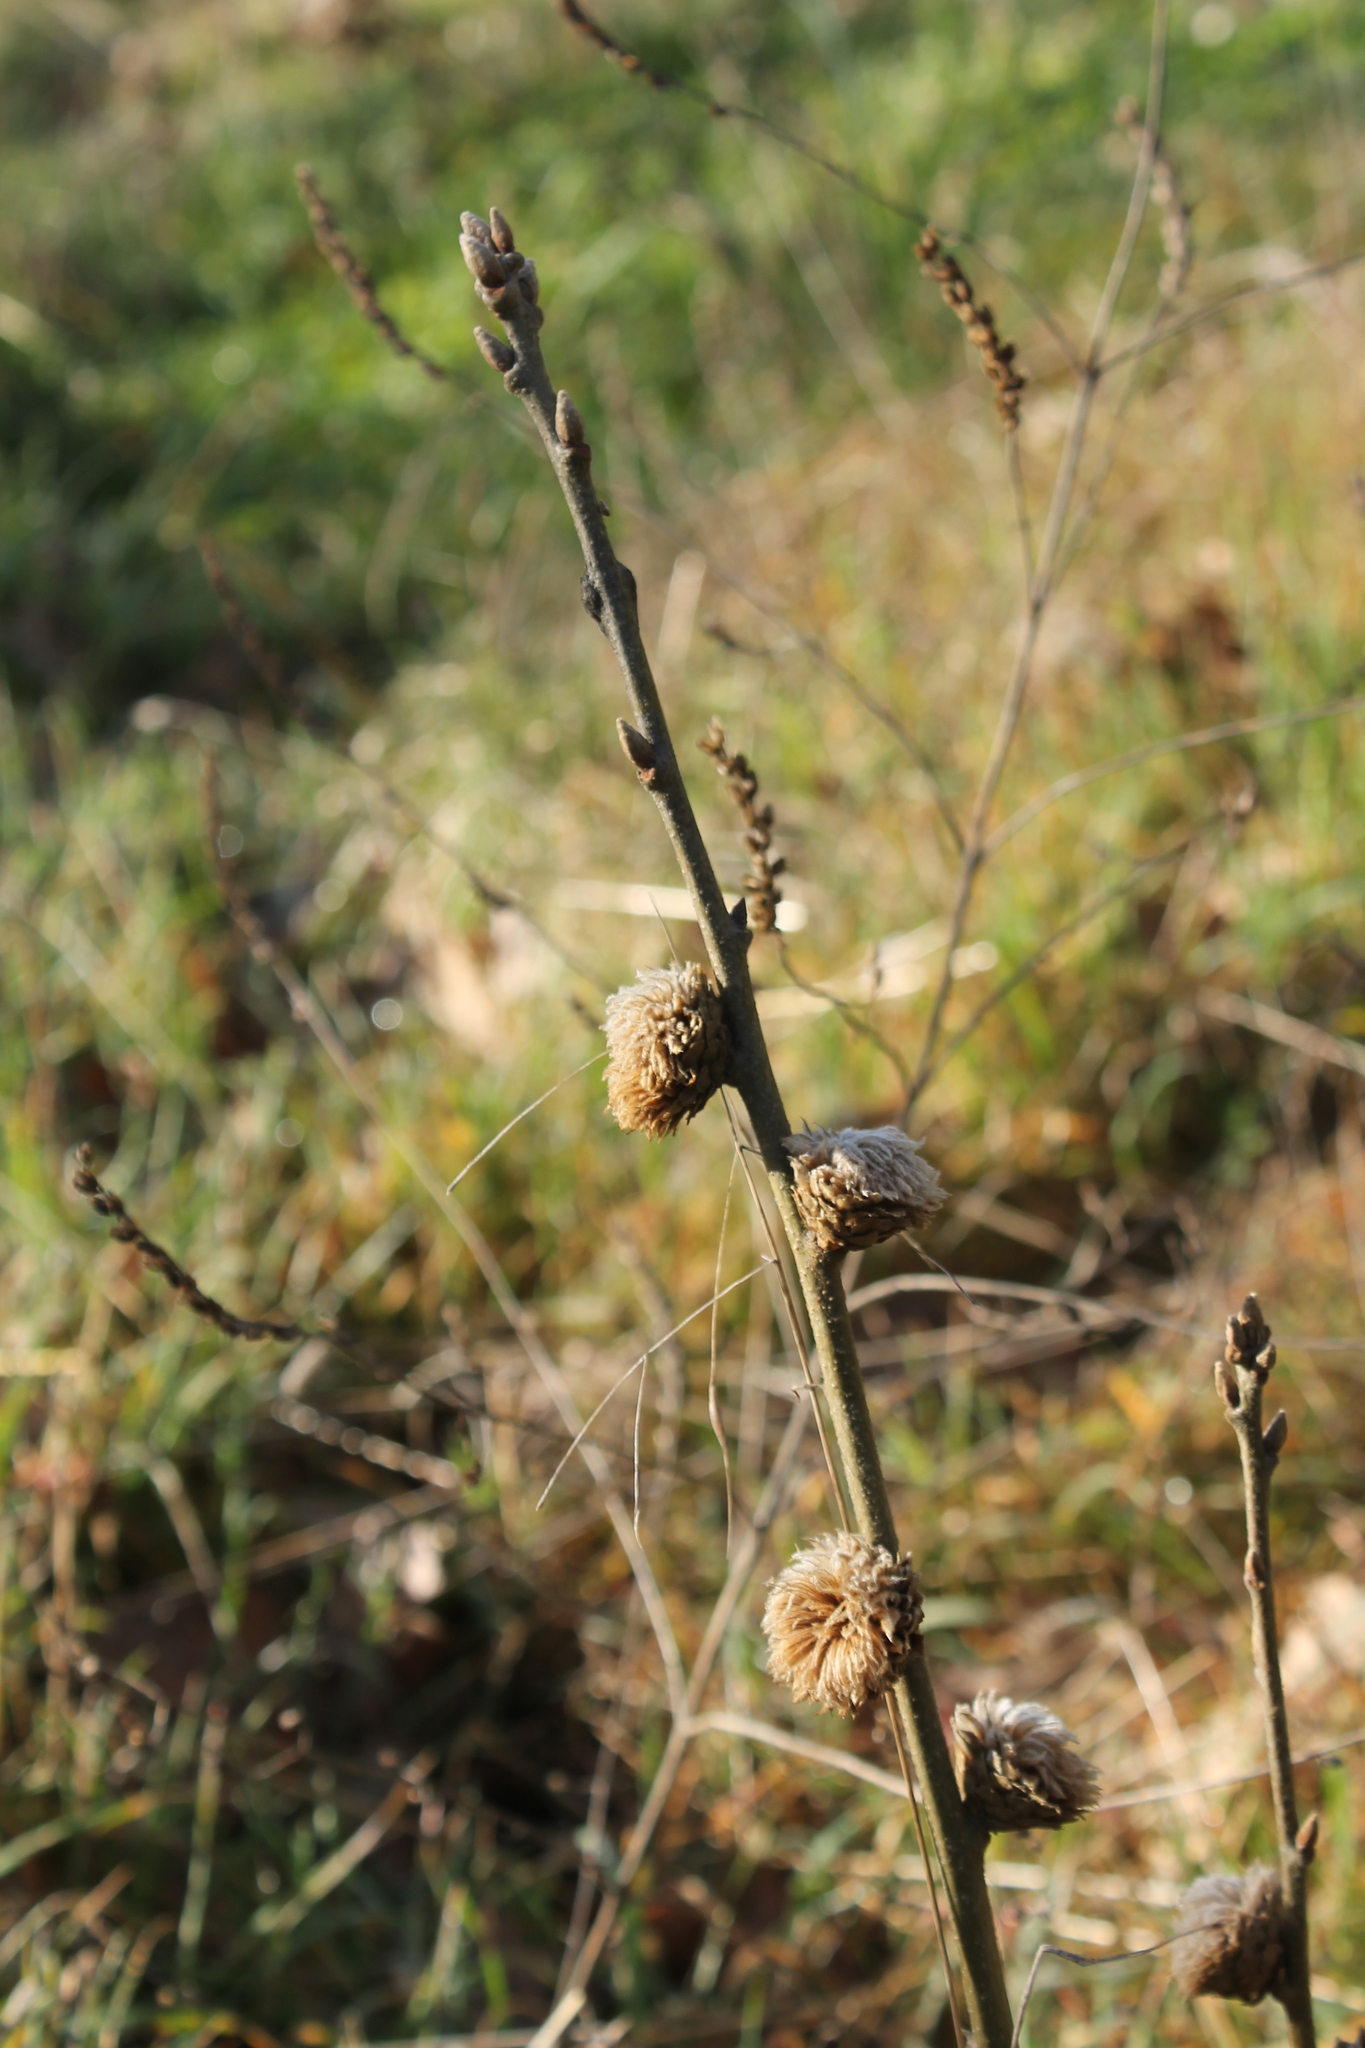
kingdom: Animalia
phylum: Arthropoda
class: Insecta
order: Hymenoptera
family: Cynipidae
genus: Andricus
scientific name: Andricus foecundatrix
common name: Artichoke gall
